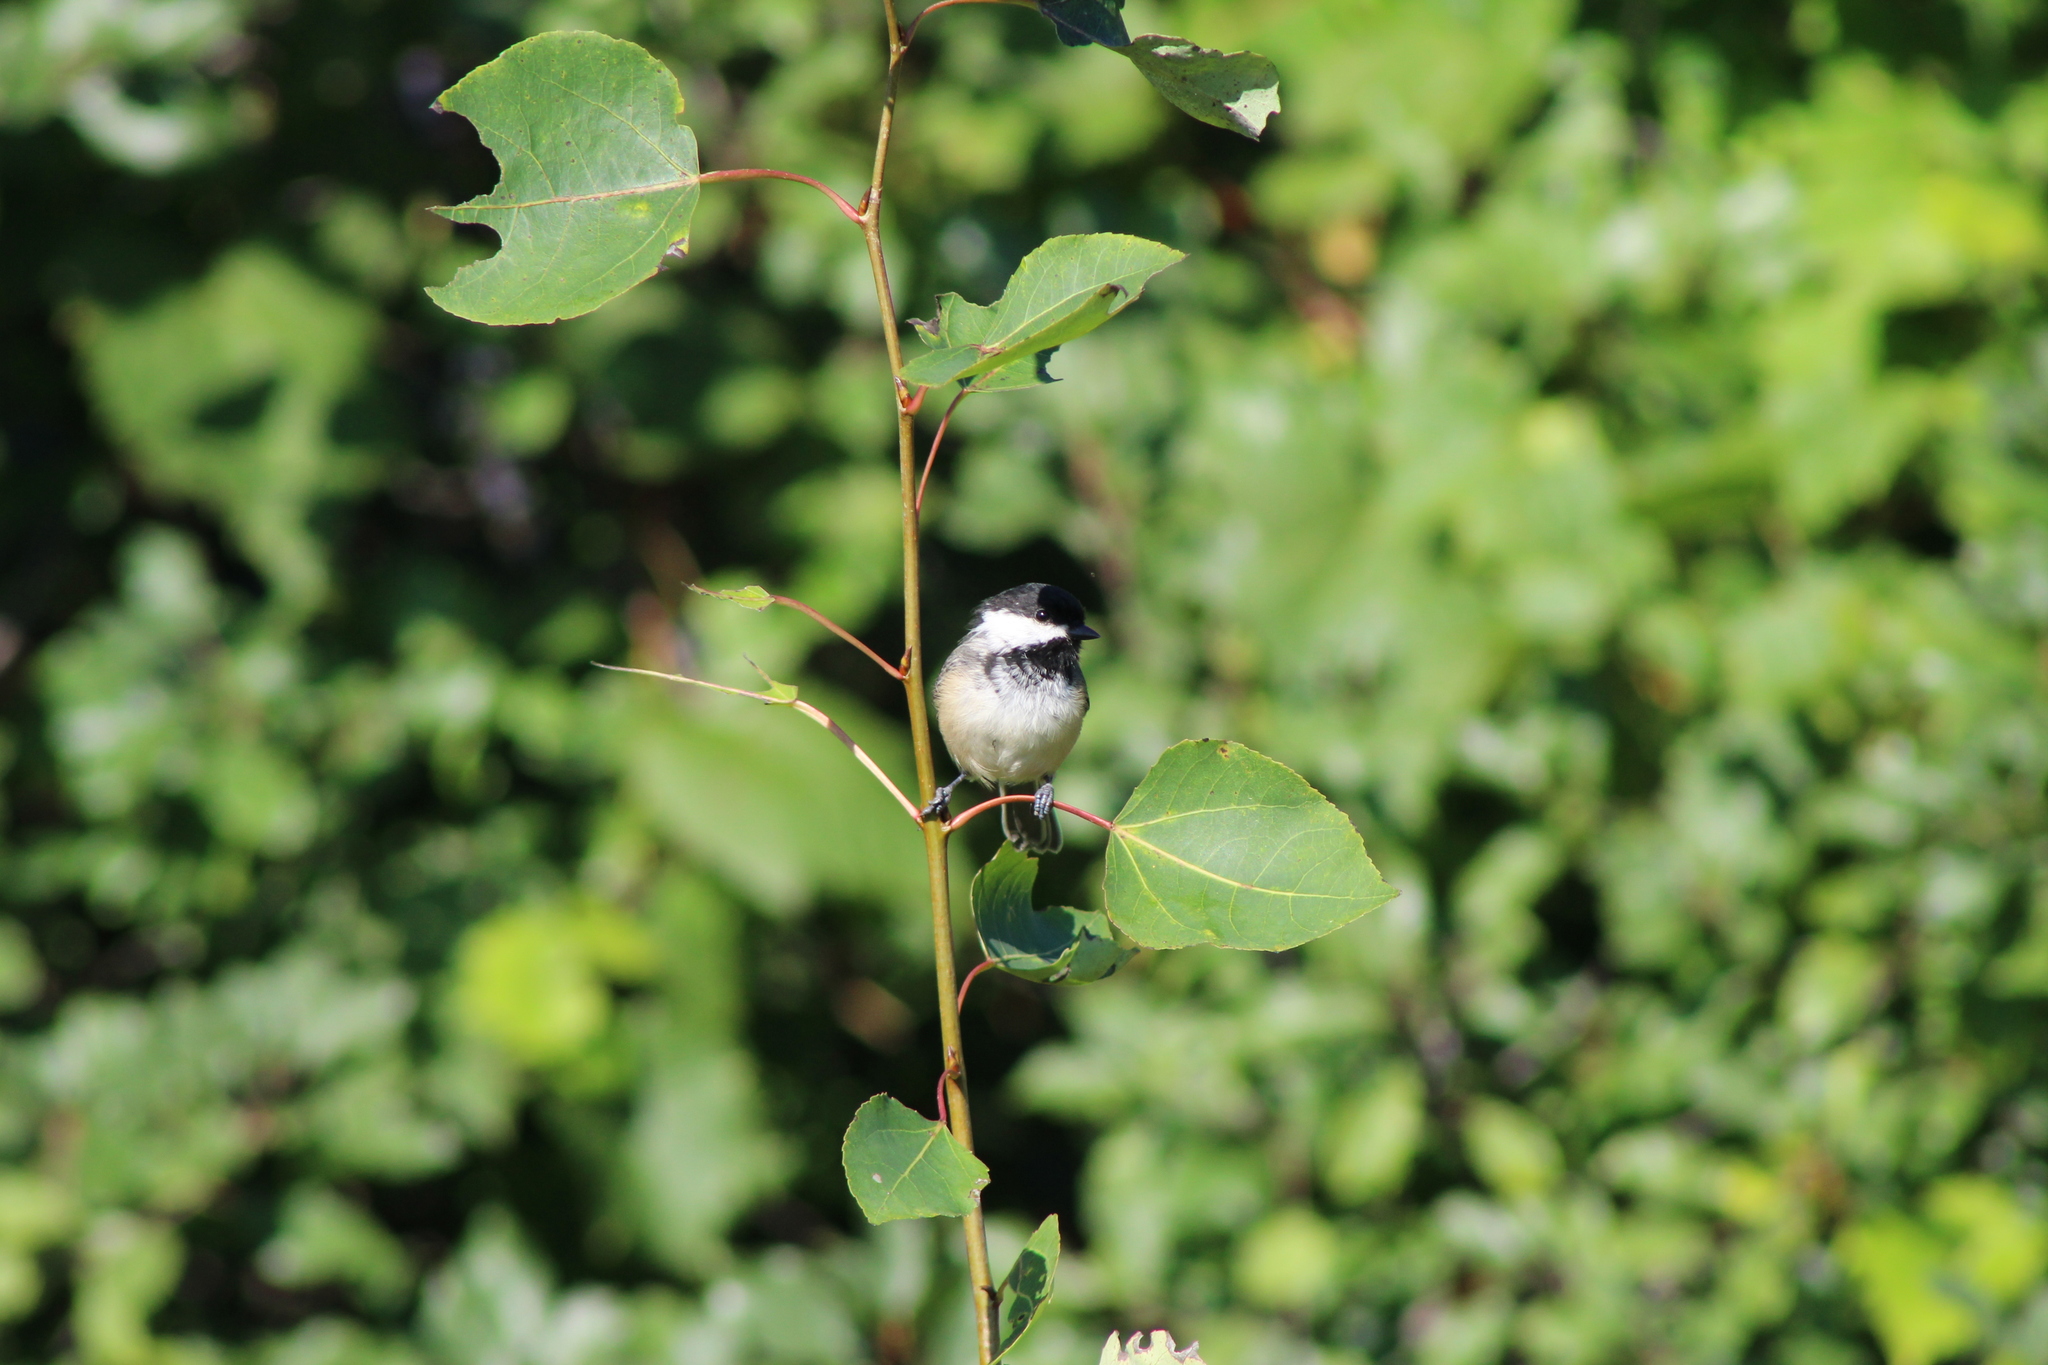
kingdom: Animalia
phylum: Chordata
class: Aves
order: Passeriformes
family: Paridae
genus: Poecile
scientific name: Poecile atricapillus
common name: Black-capped chickadee
